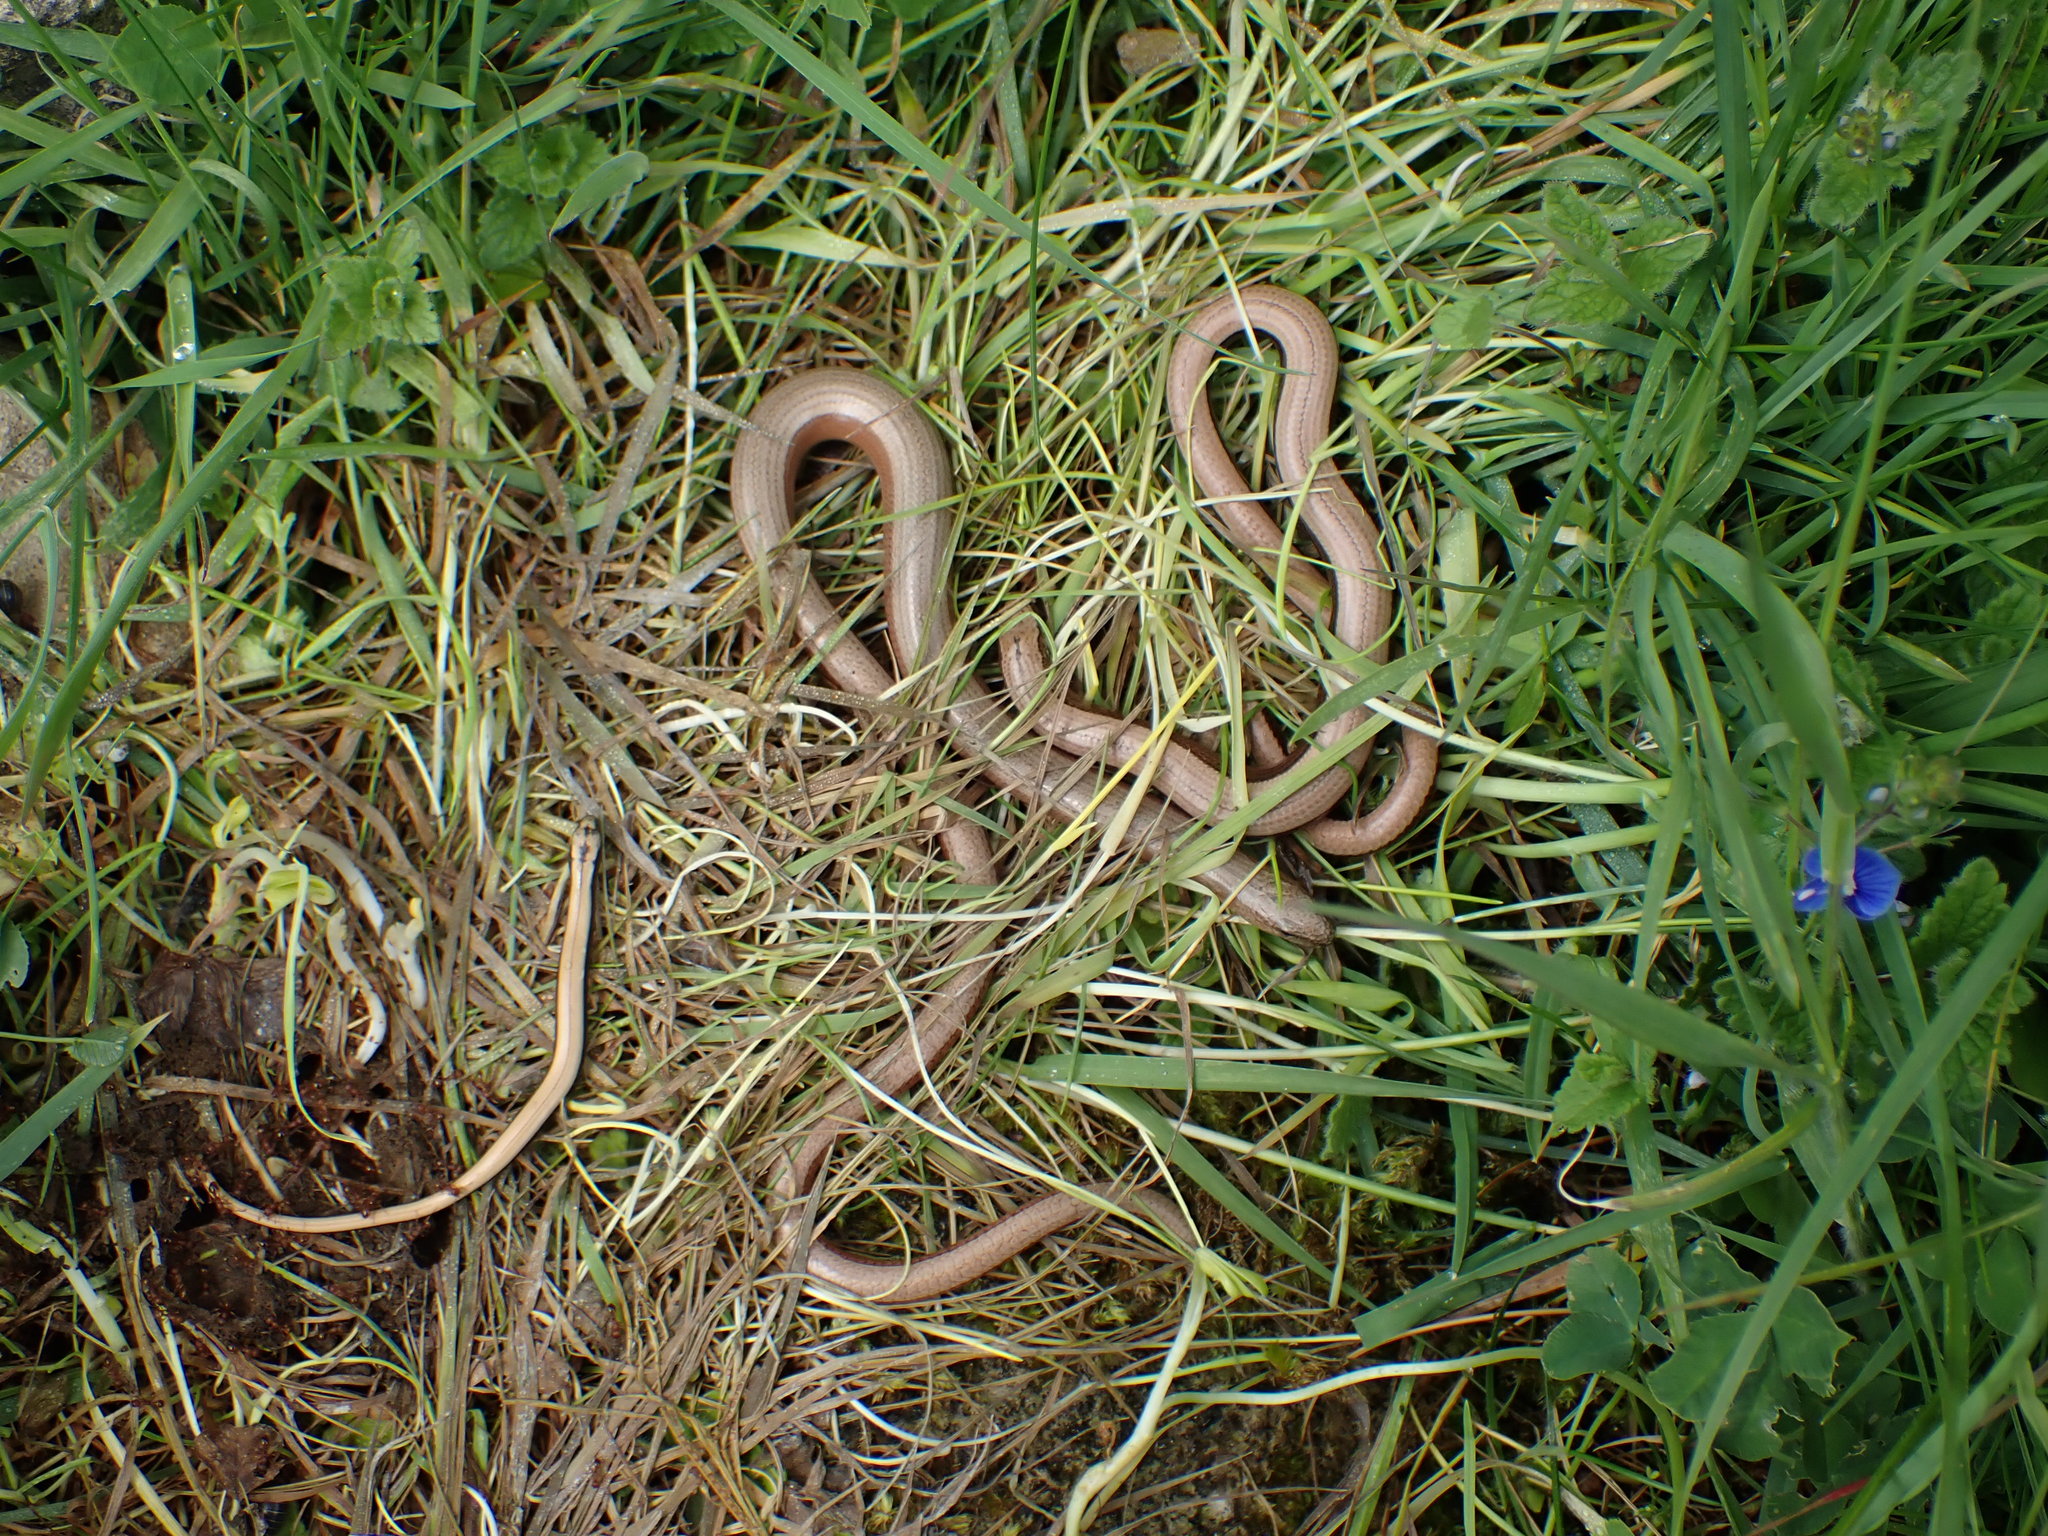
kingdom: Animalia
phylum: Chordata
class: Squamata
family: Anguidae
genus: Anguis
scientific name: Anguis fragilis
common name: Slow worm
